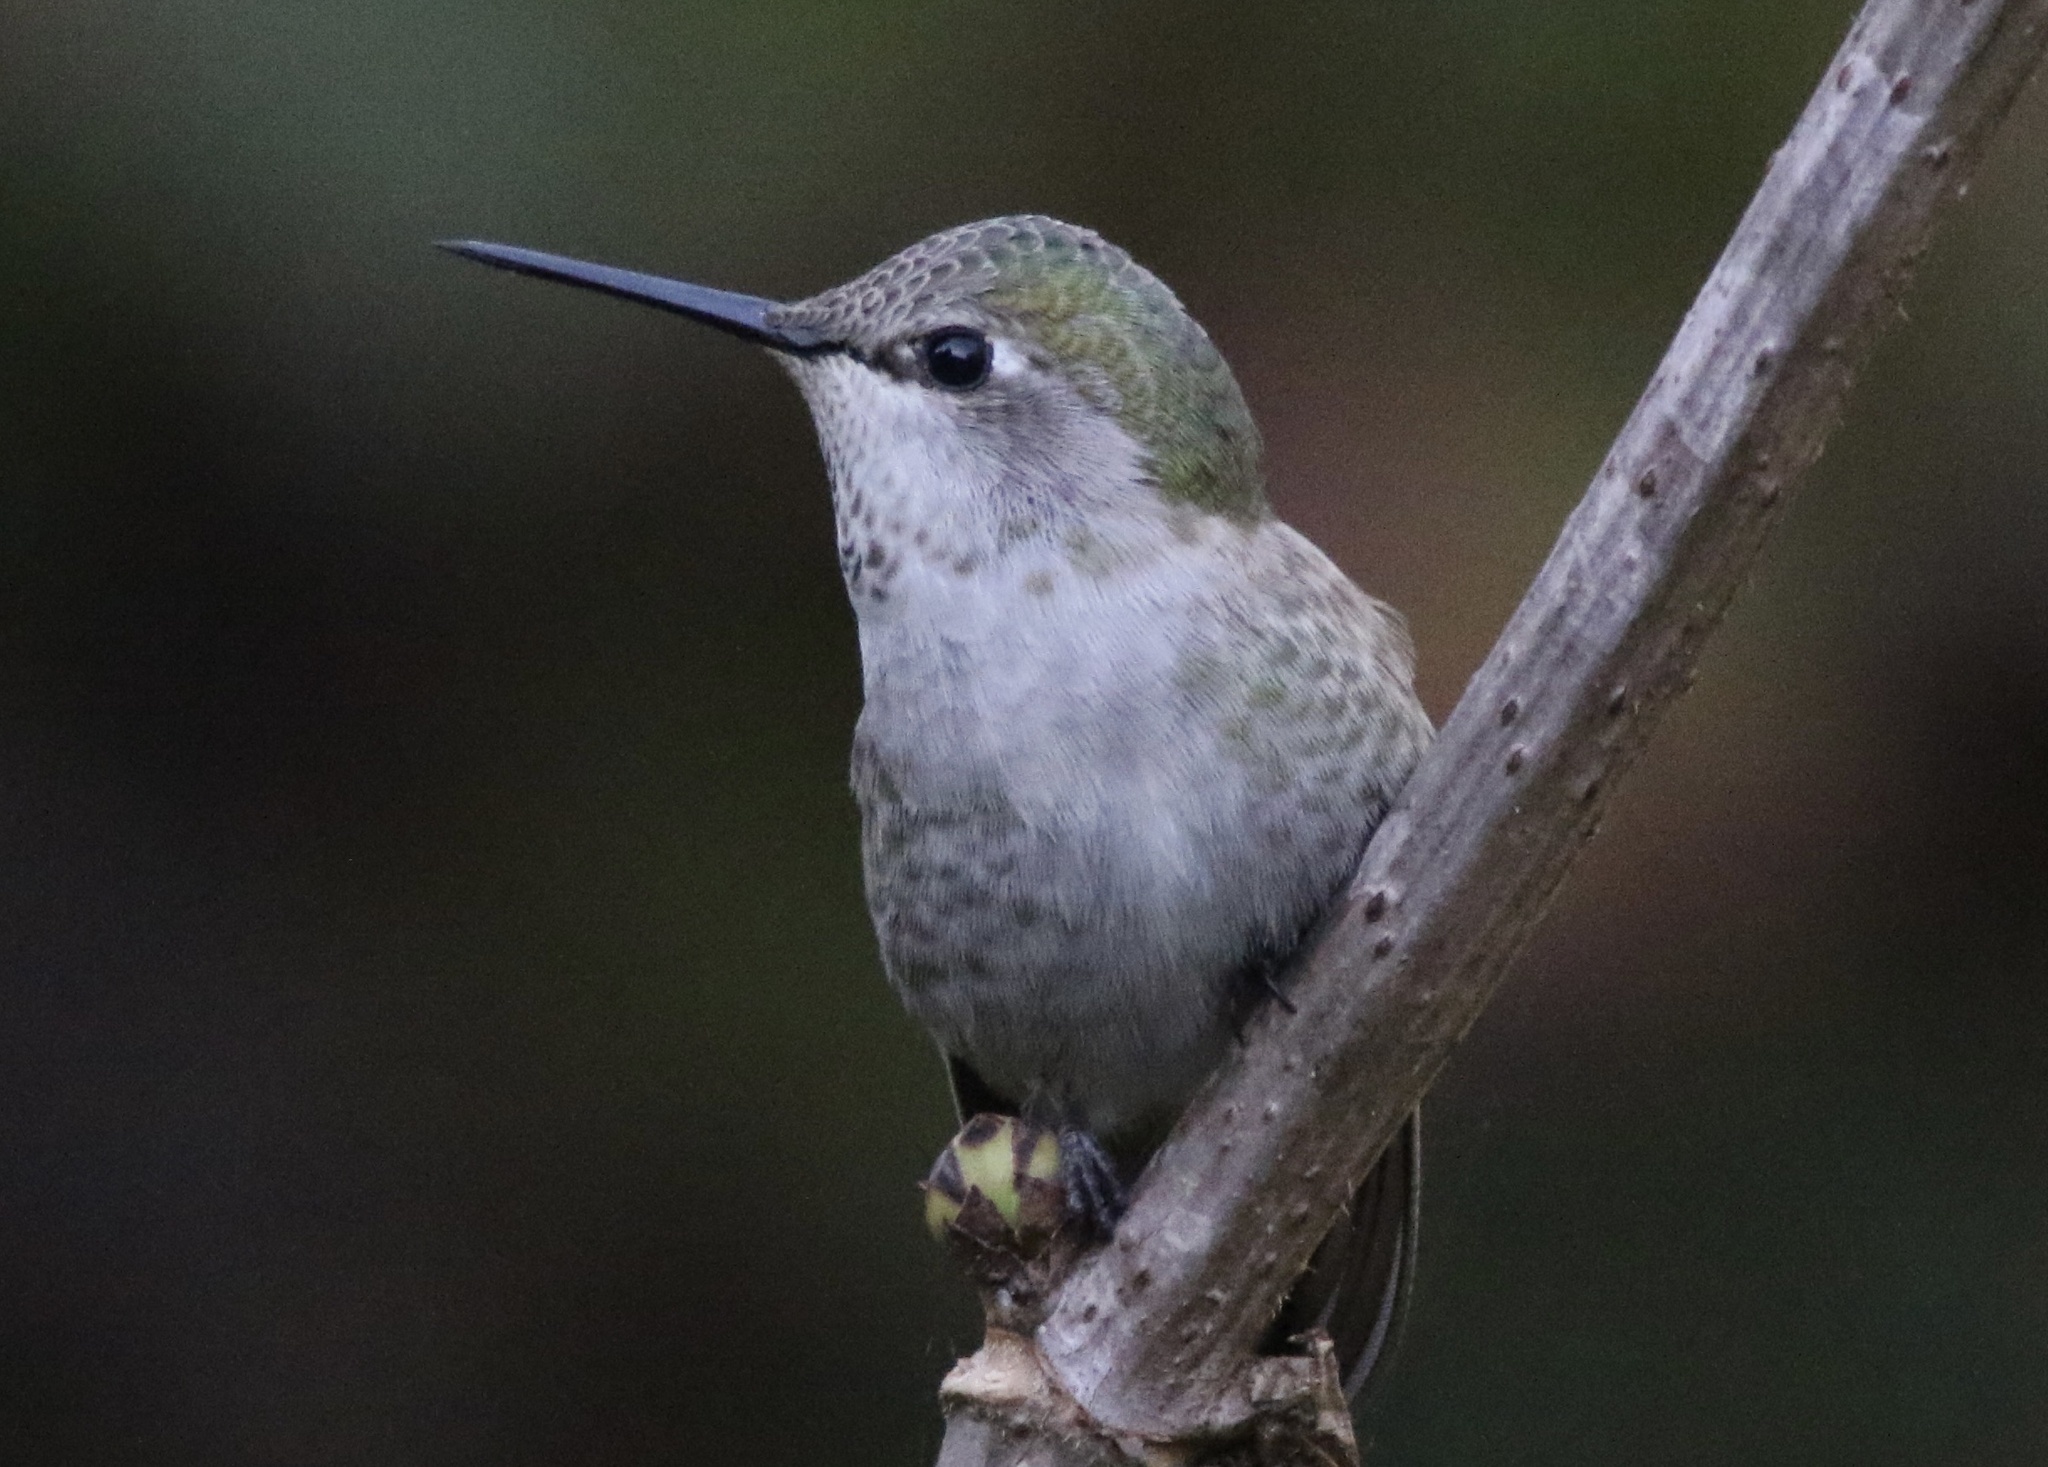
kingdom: Animalia
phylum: Chordata
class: Aves
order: Apodiformes
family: Trochilidae
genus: Calypte
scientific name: Calypte anna
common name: Anna's hummingbird
